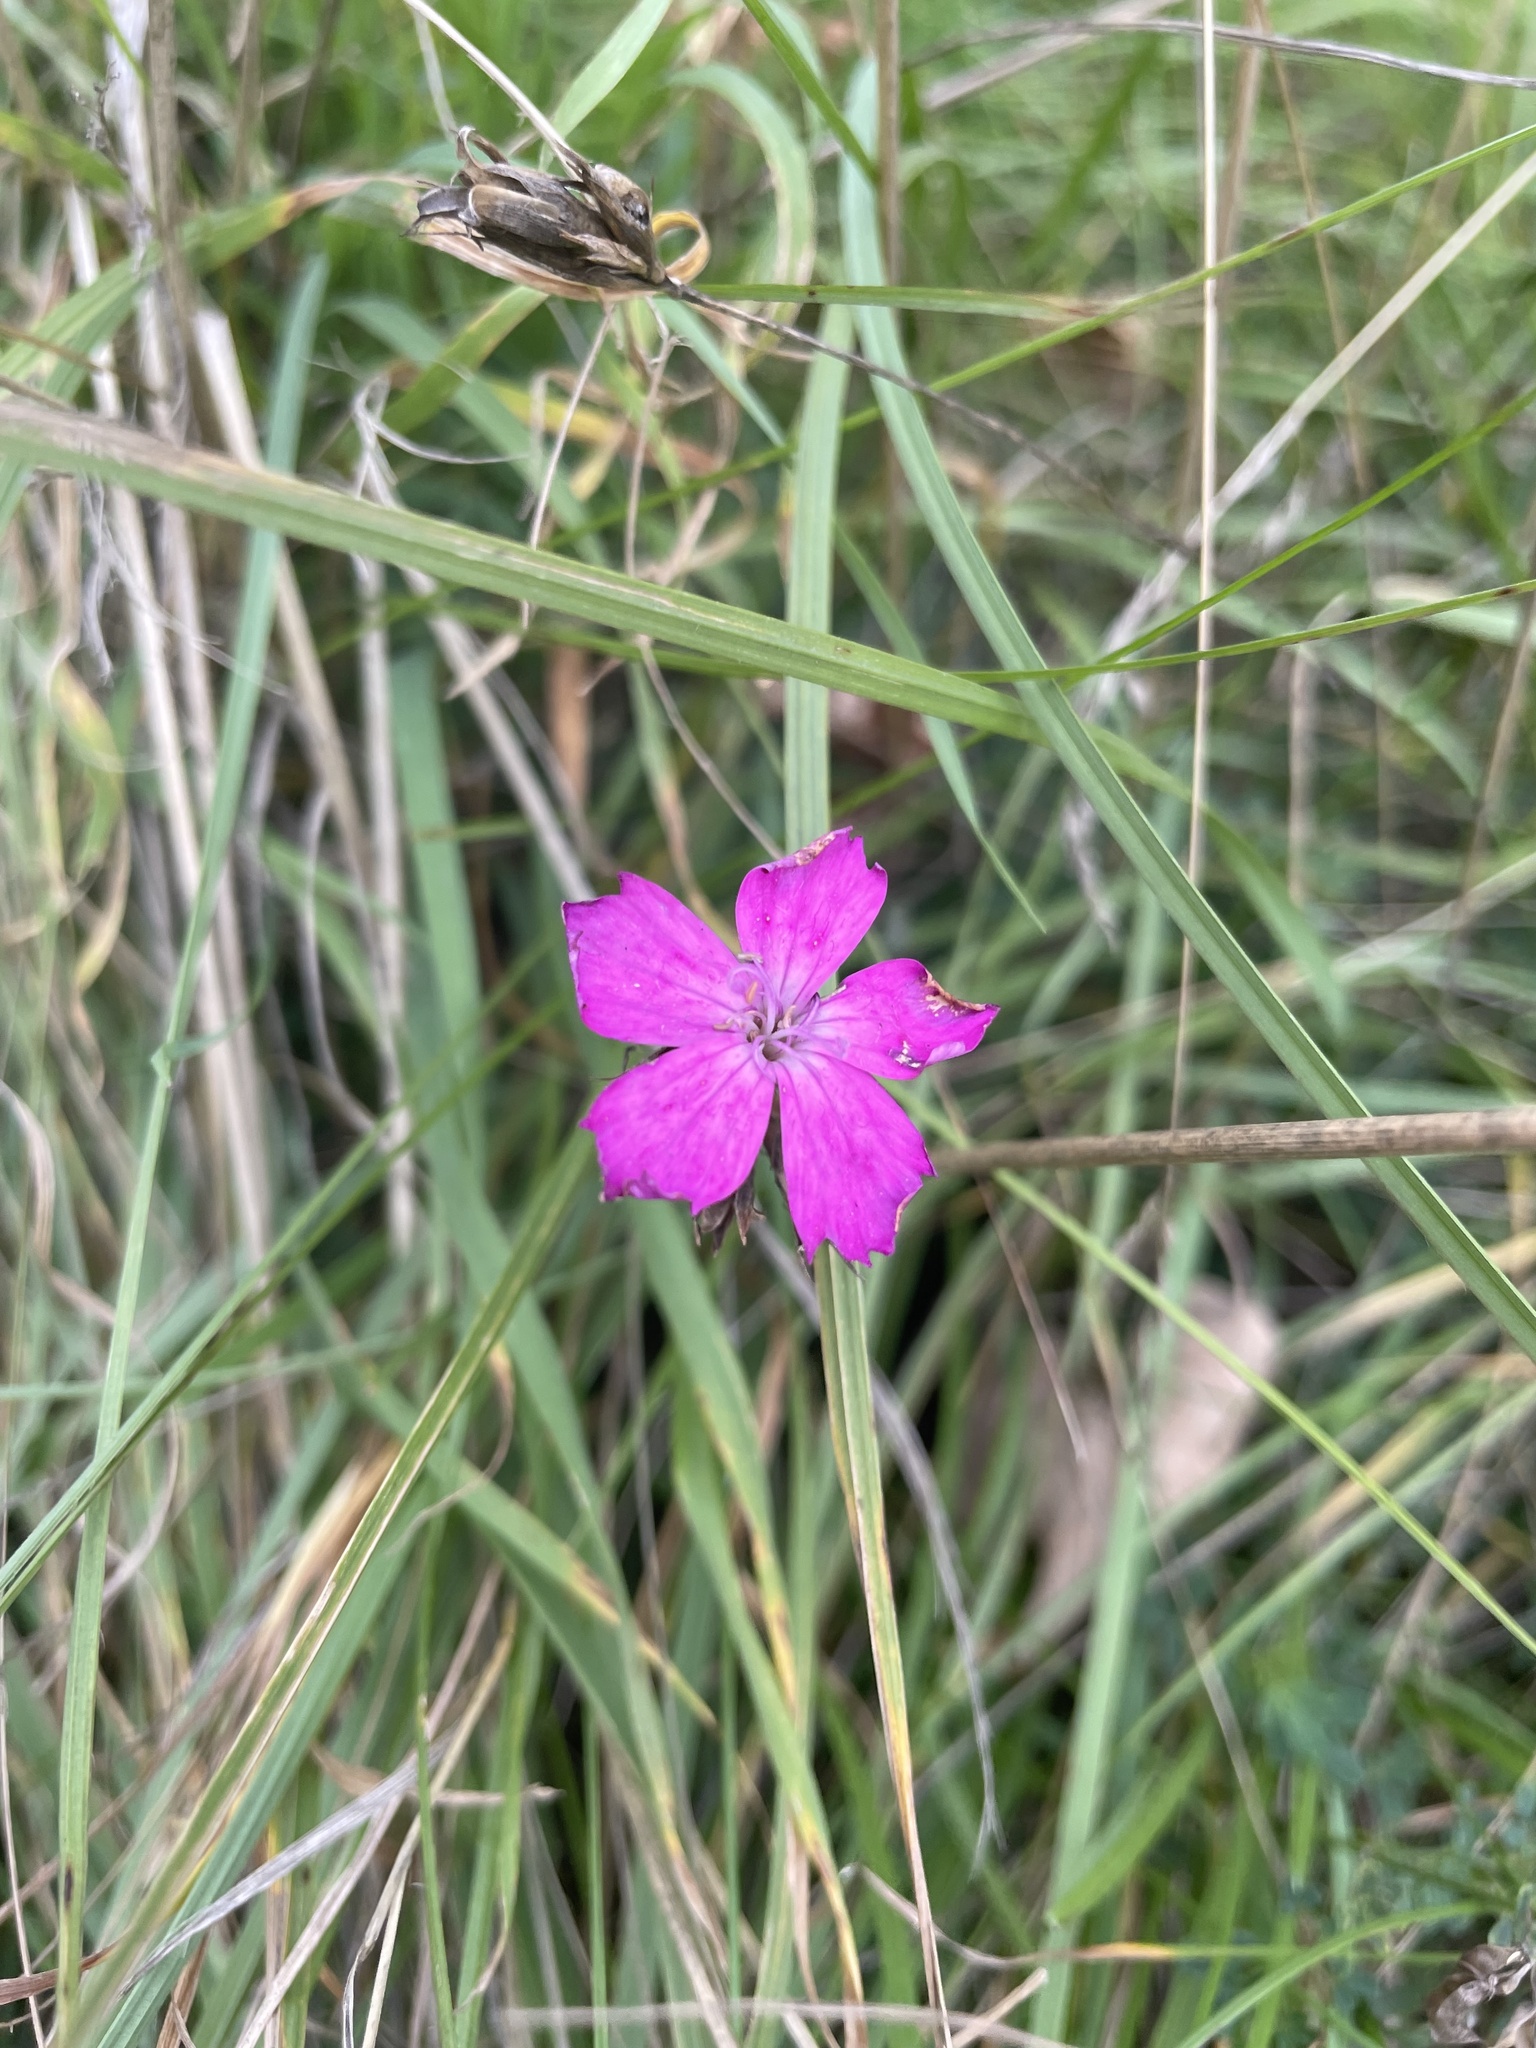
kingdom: Plantae
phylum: Tracheophyta
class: Magnoliopsida
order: Caryophyllales
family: Caryophyllaceae
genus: Dianthus
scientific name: Dianthus carthusianorum
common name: Carthusian pink
